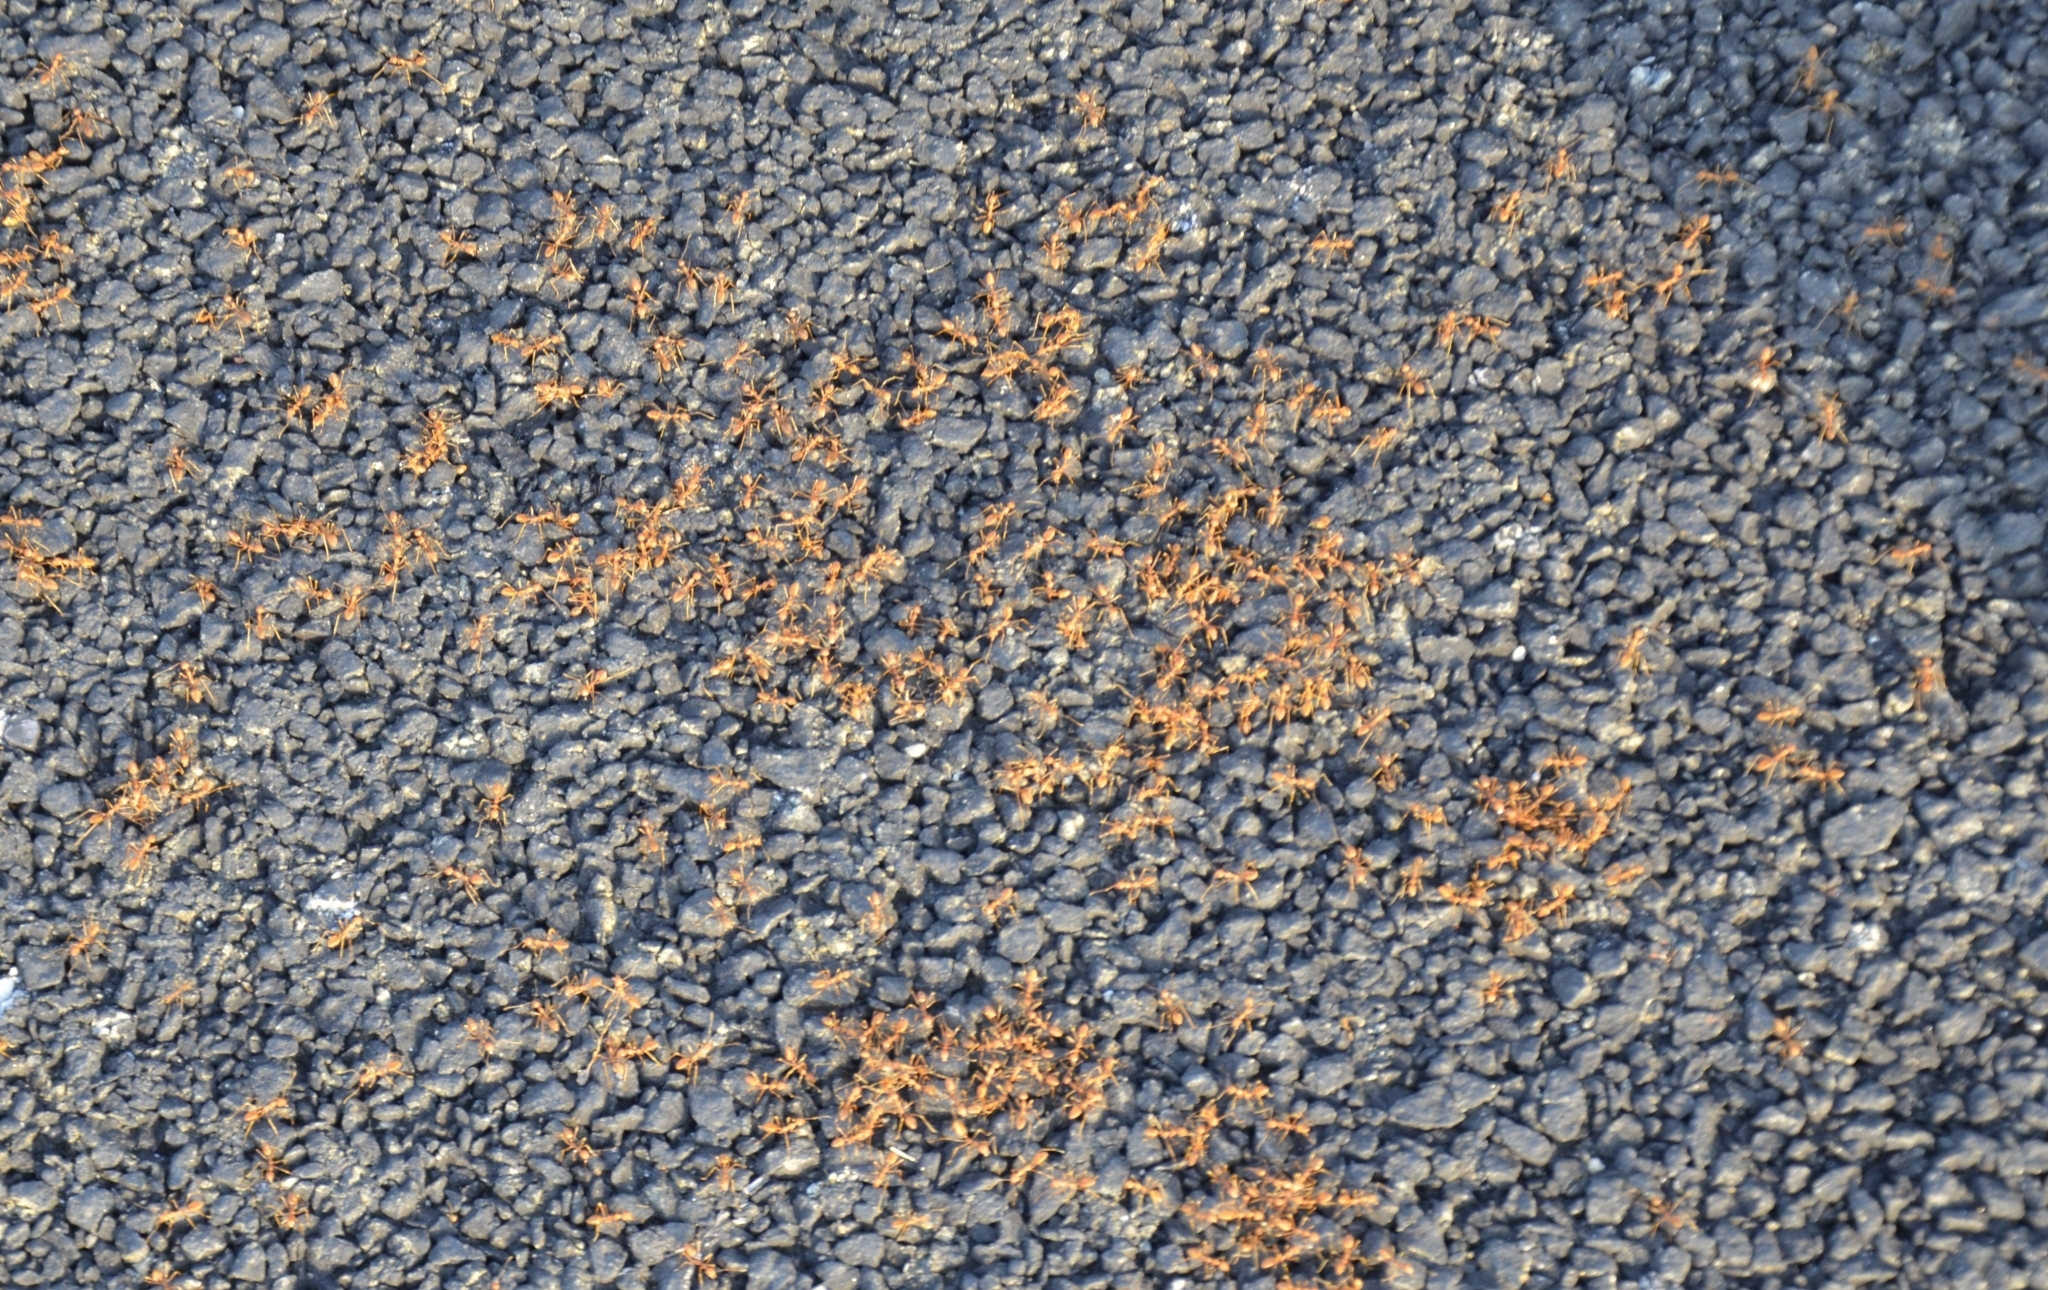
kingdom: Animalia
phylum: Arthropoda
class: Insecta
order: Hymenoptera
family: Formicidae
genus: Oecophylla
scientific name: Oecophylla smaragdina
